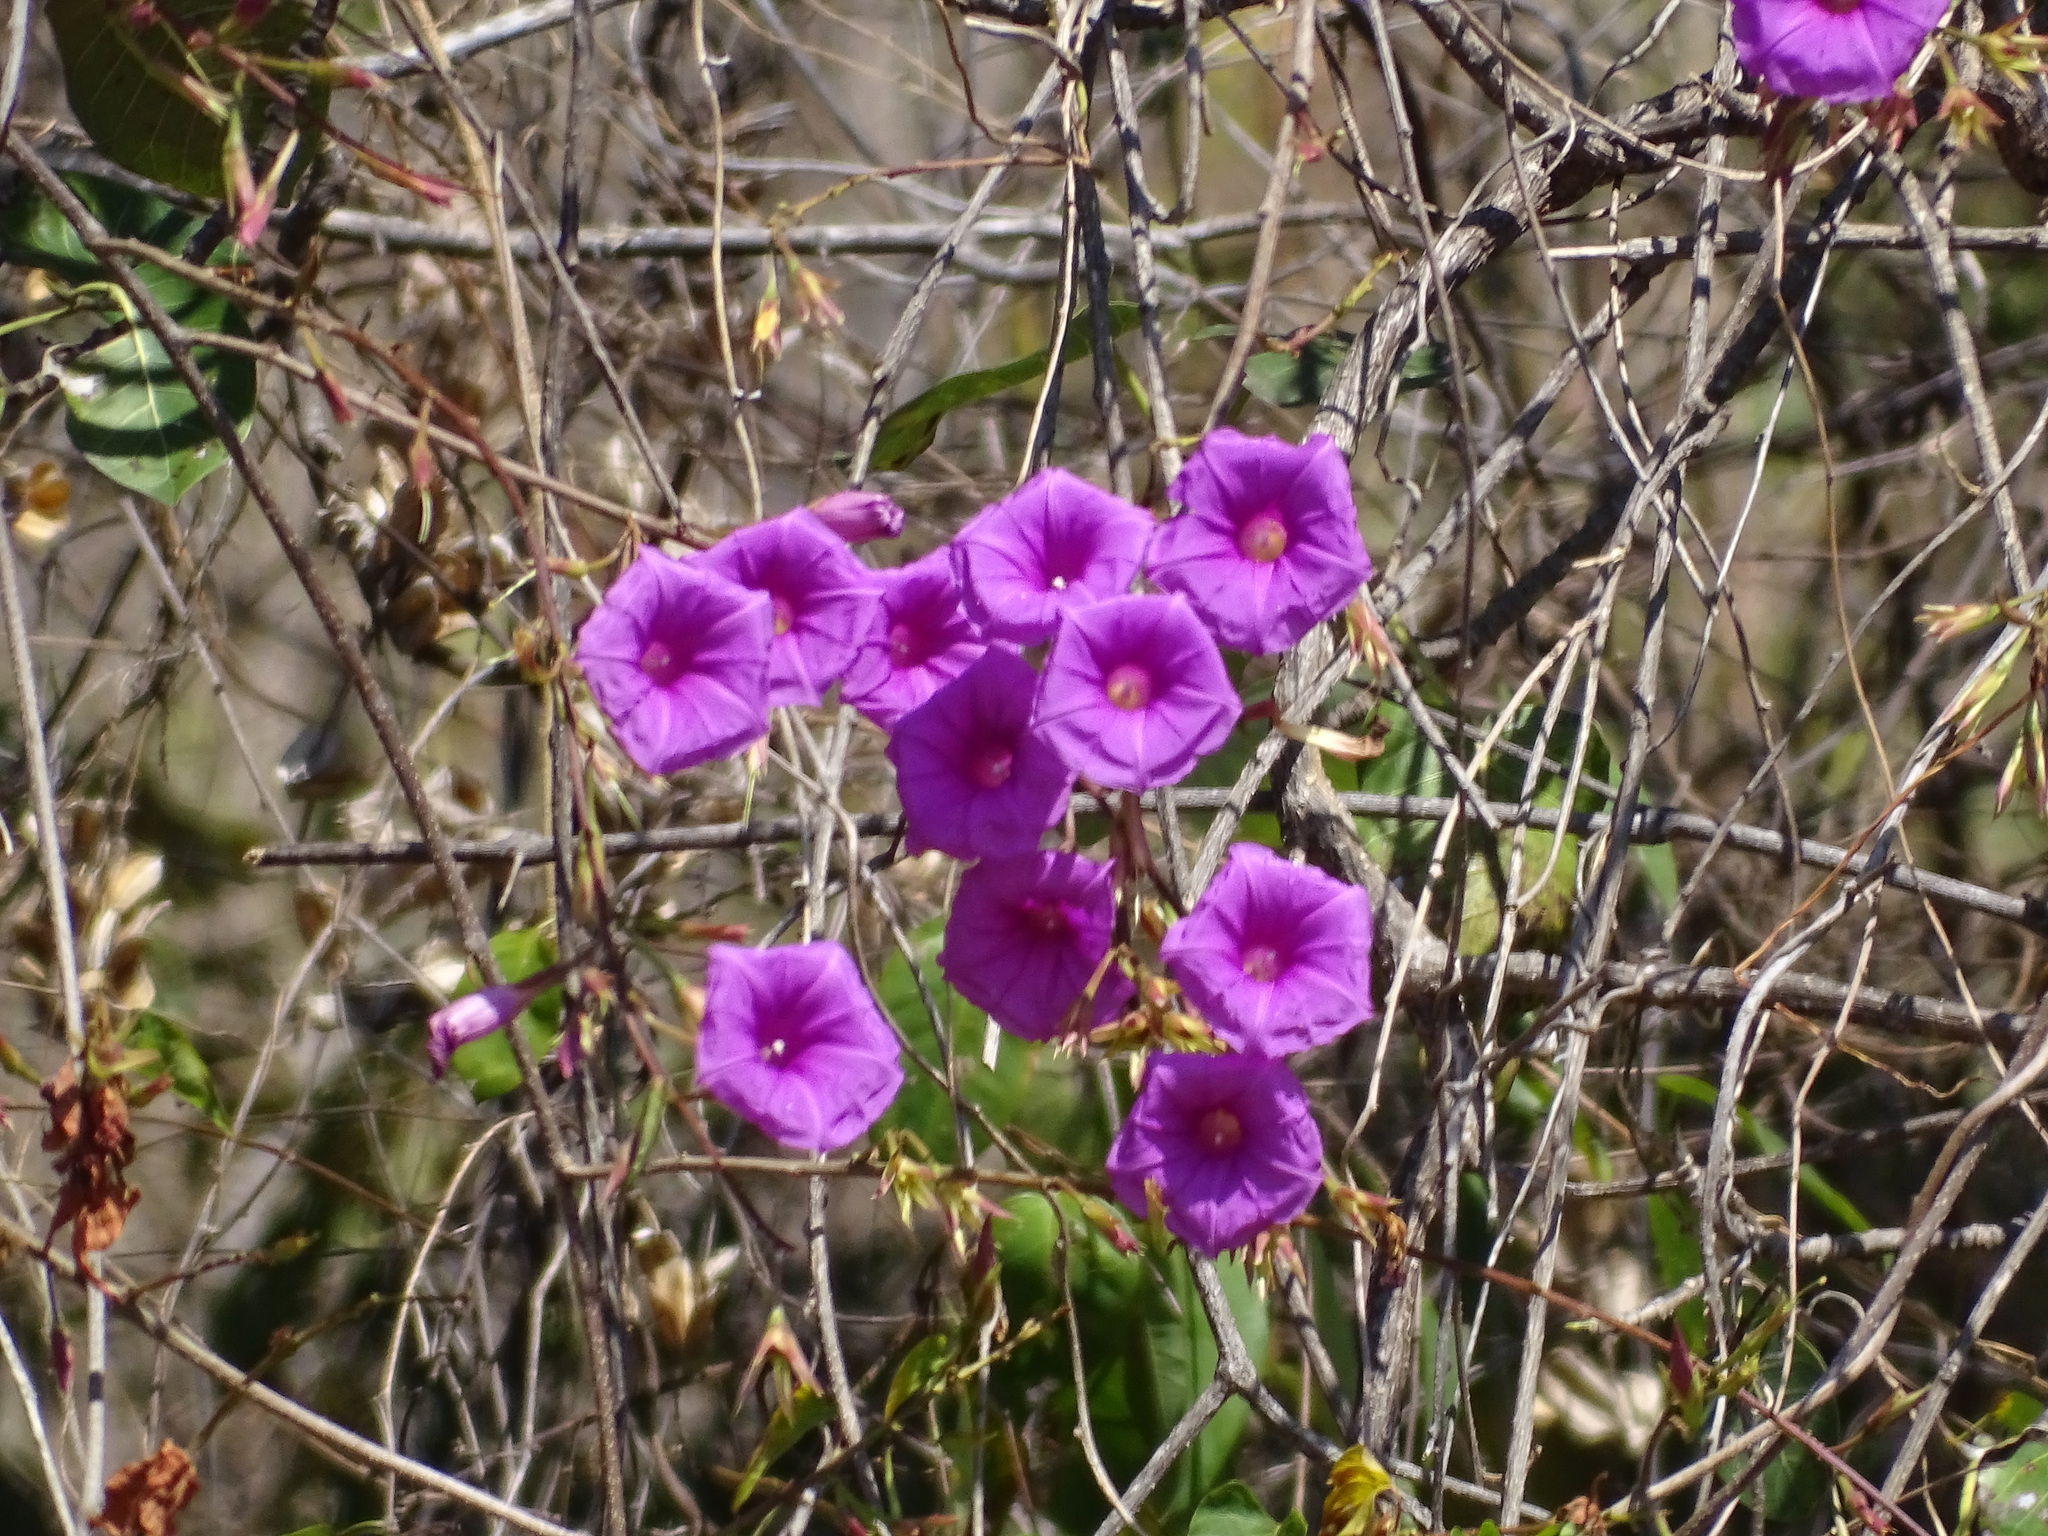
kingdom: Plantae
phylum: Tracheophyta
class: Magnoliopsida
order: Solanales
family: Convolvulaceae
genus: Ipomoea
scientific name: Ipomoea bernoulliana
